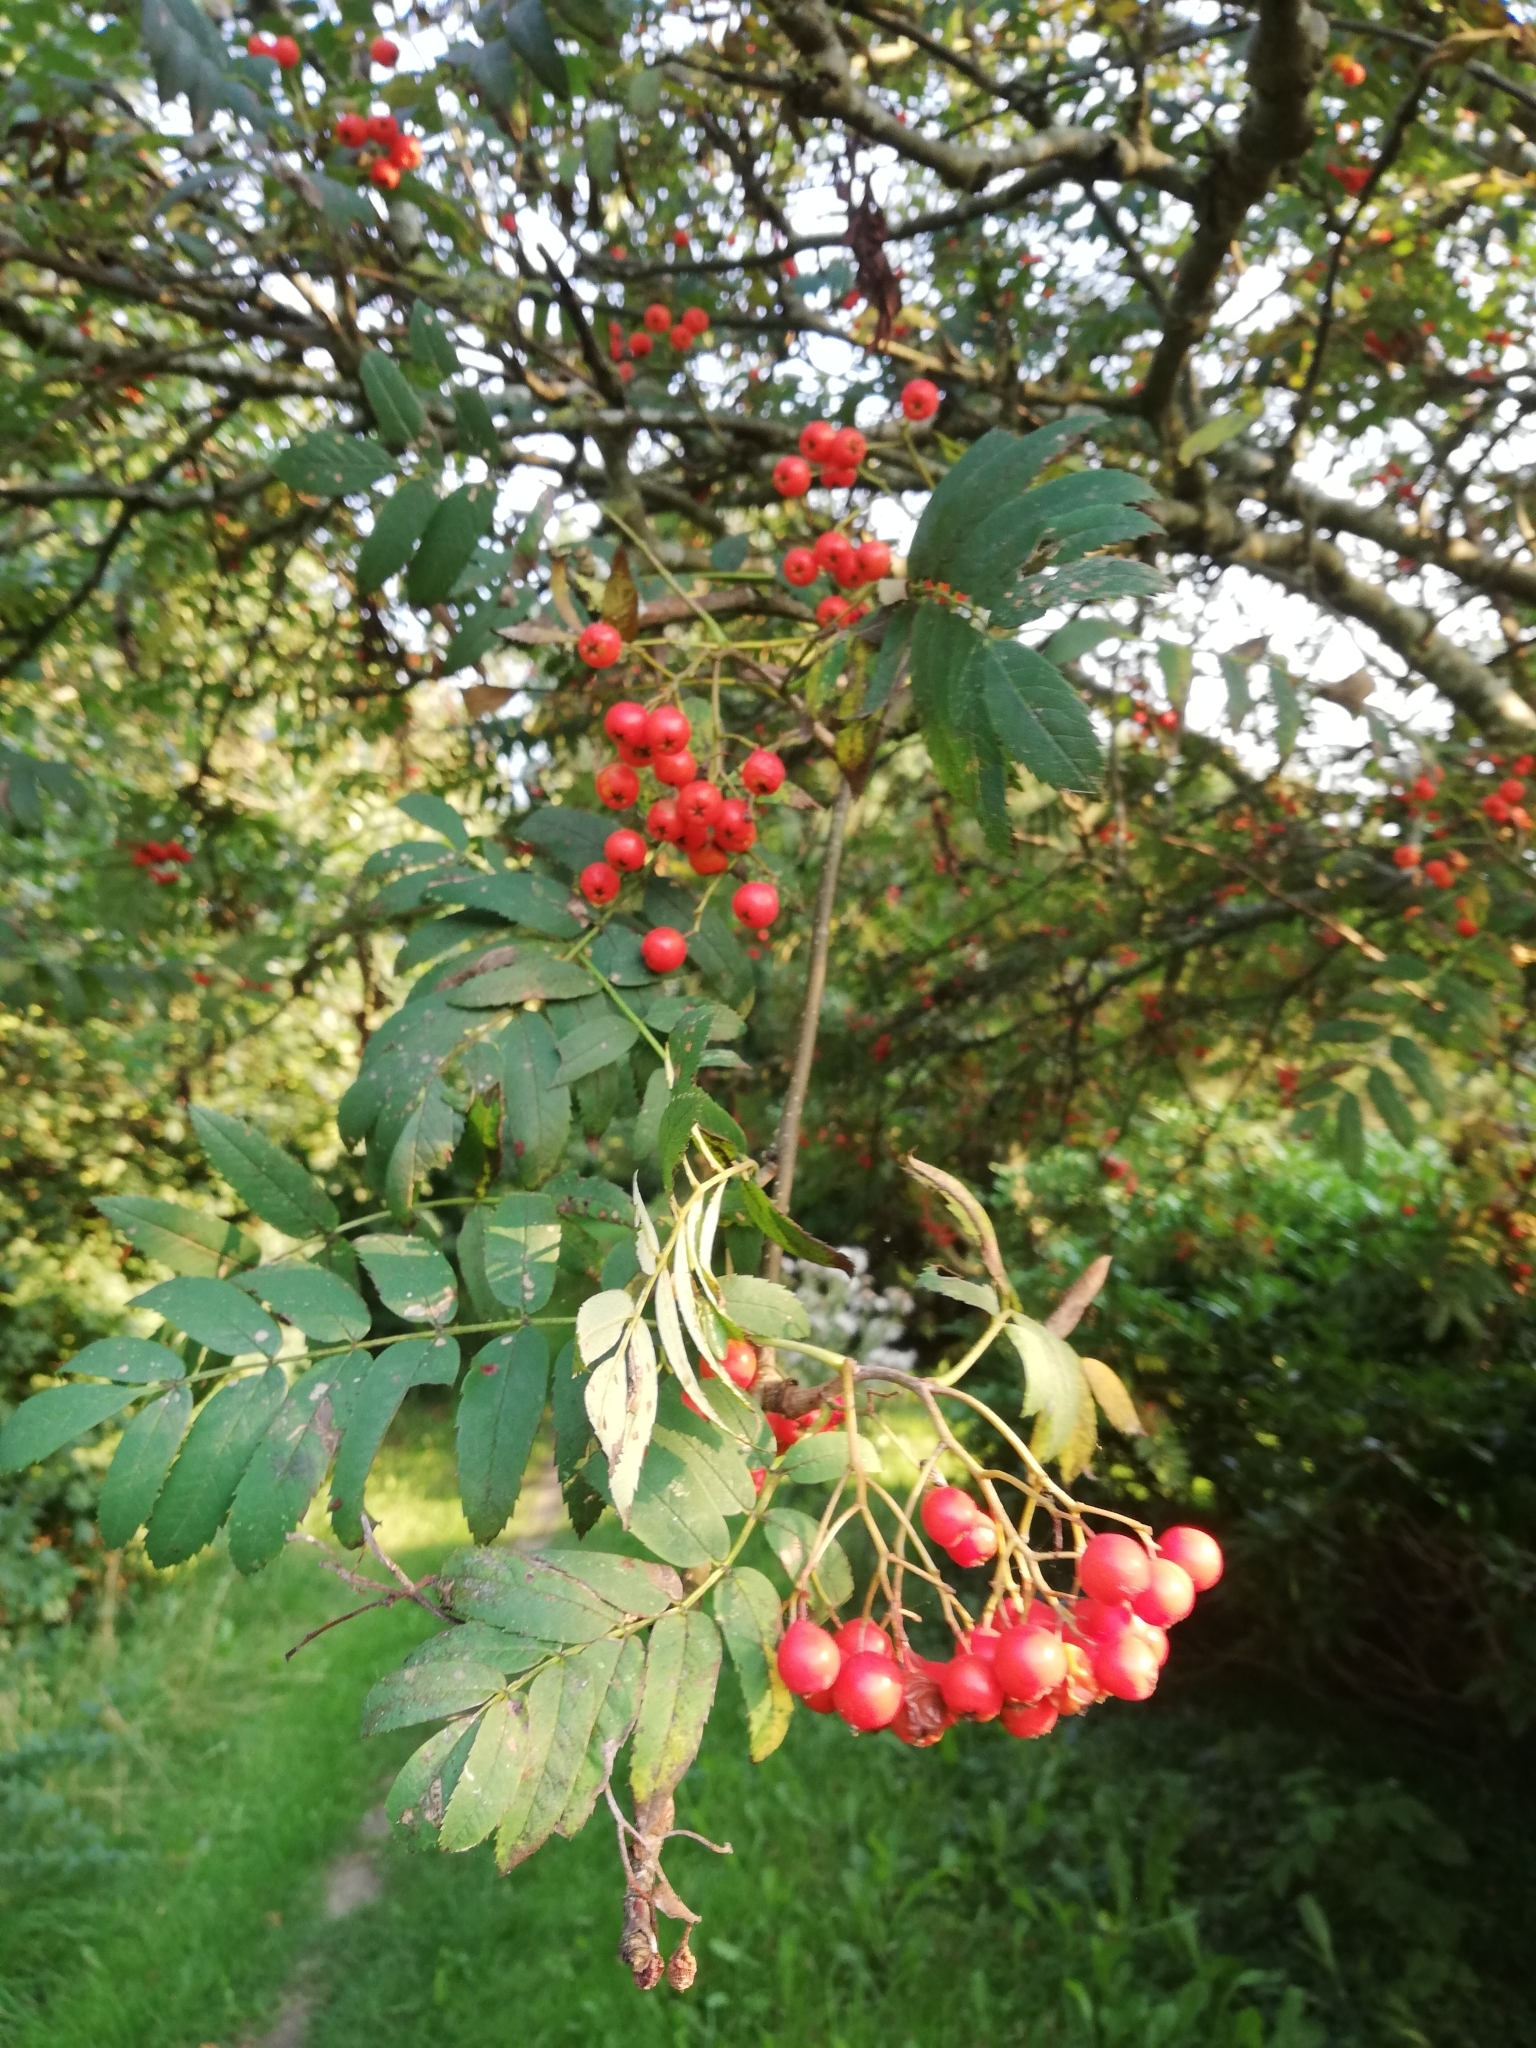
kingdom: Plantae
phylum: Tracheophyta
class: Magnoliopsida
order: Rosales
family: Rosaceae
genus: Sorbus
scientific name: Sorbus aucuparia
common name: Rowan
